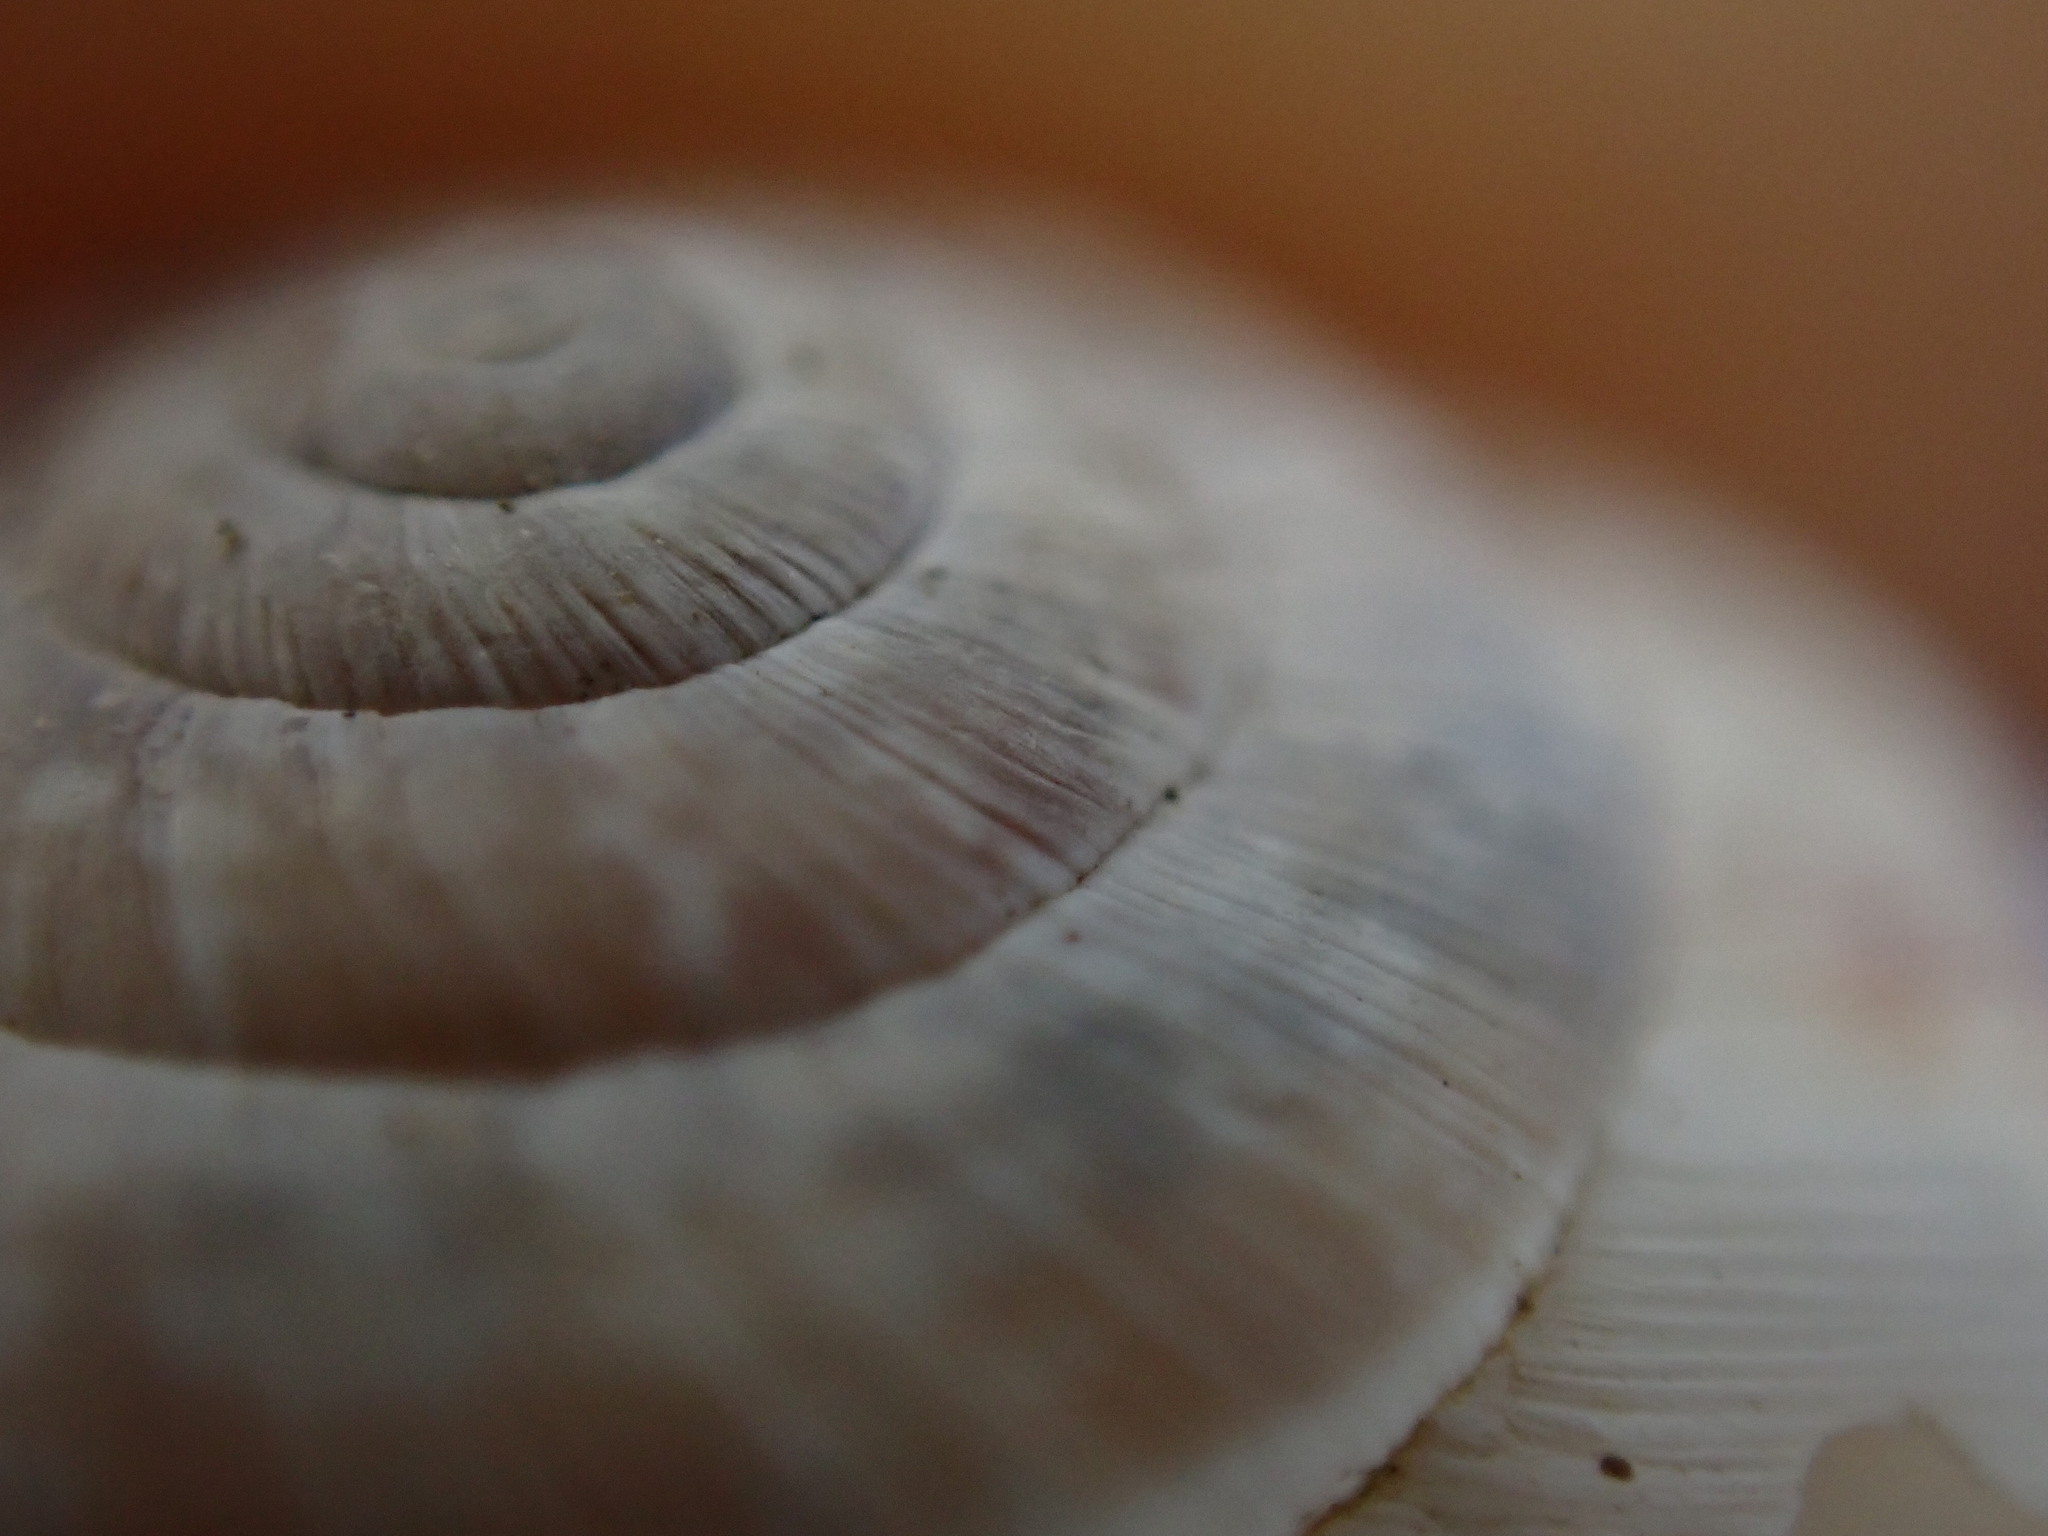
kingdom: Animalia
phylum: Mollusca
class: Gastropoda
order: Stylommatophora
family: Geomitridae
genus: Candidula
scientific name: Candidula unifasciata
